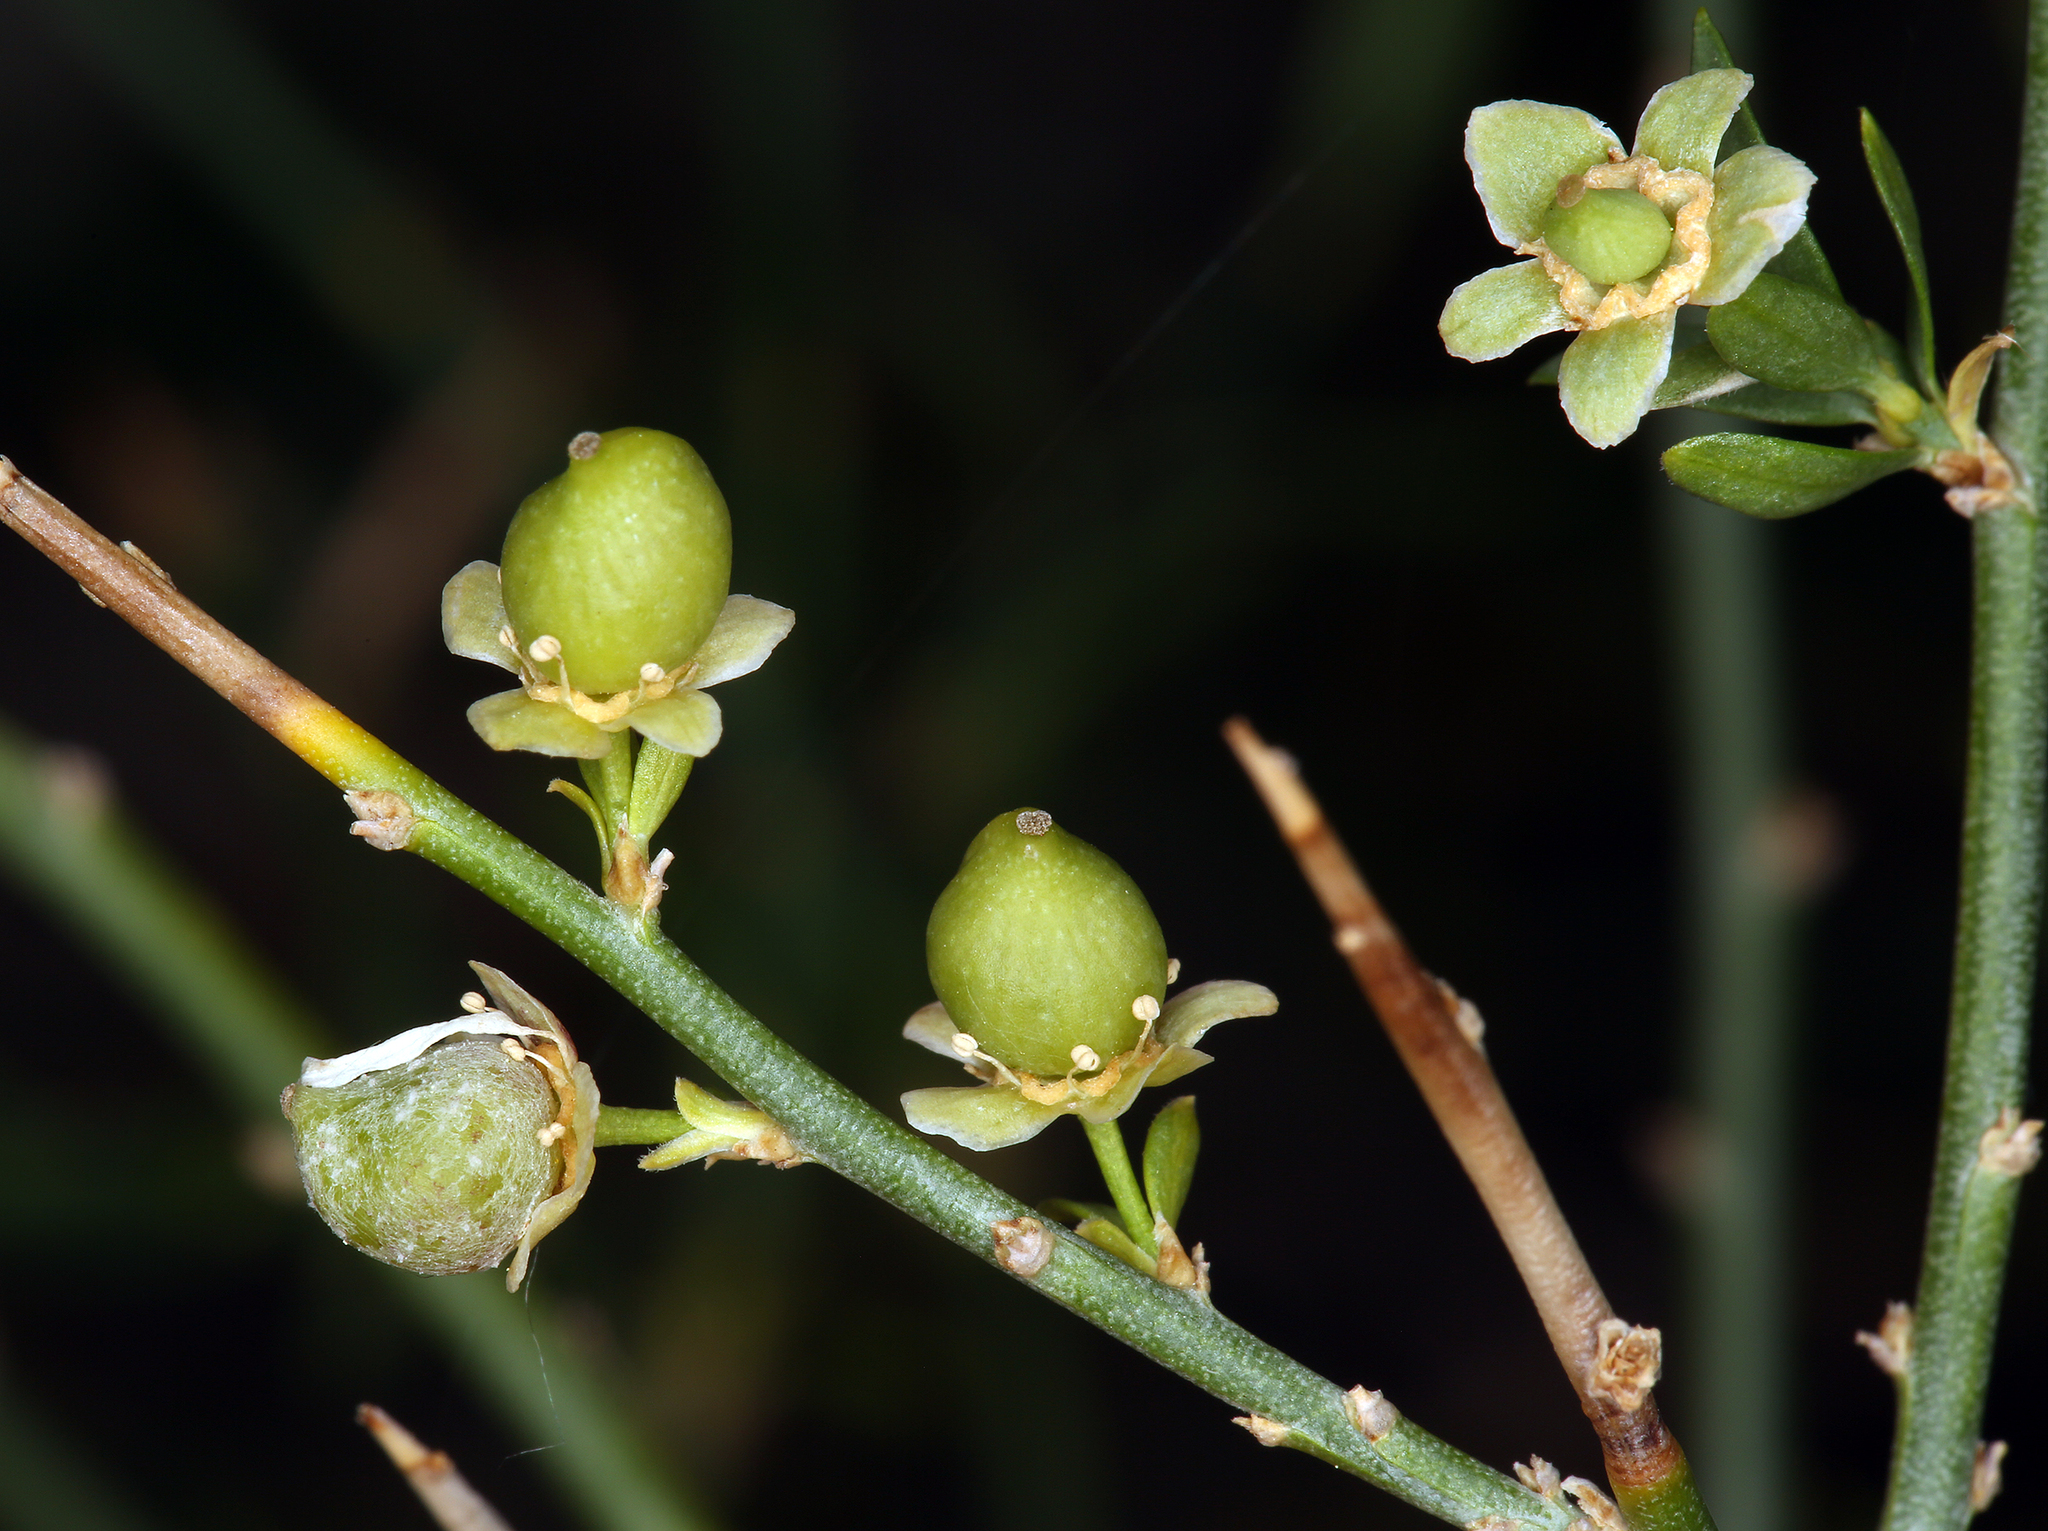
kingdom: Plantae
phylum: Tracheophyta
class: Magnoliopsida
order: Crossosomatales
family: Crossosomataceae
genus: Glossopetalon
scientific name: Glossopetalon spinescens
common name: Spring greasebush
